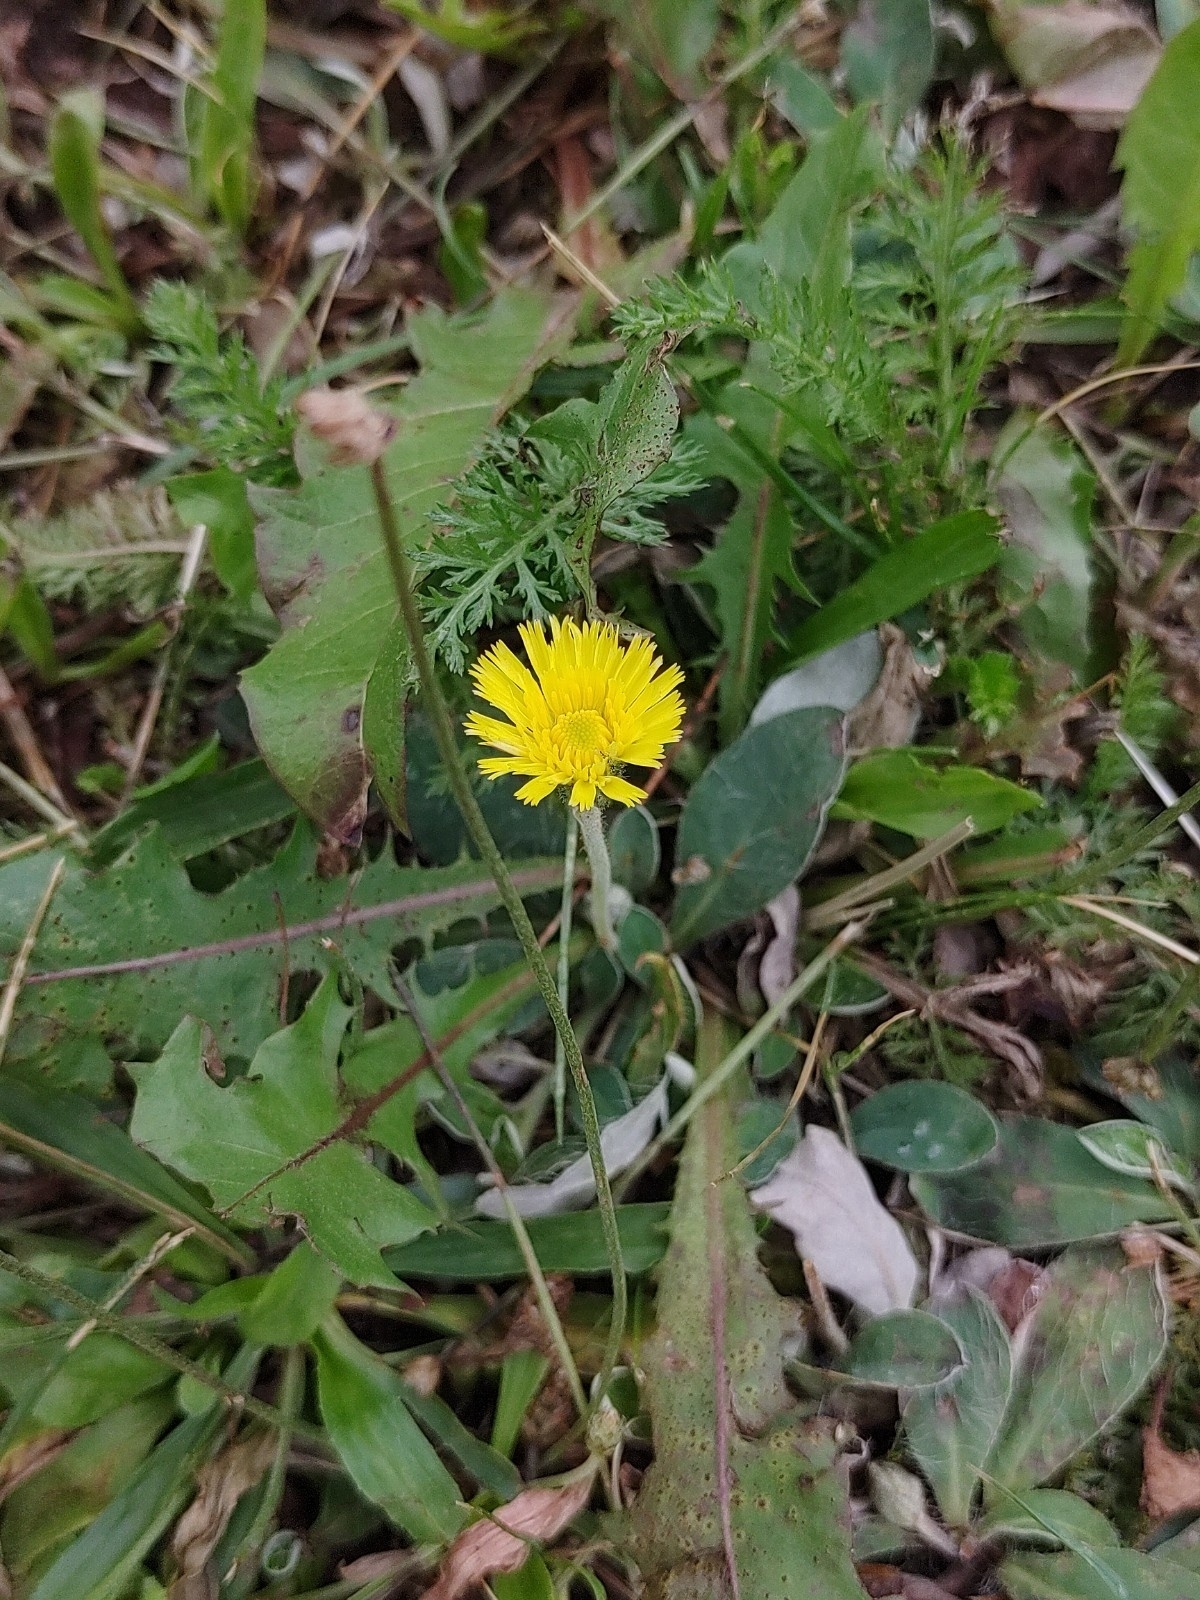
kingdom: Plantae
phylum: Tracheophyta
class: Magnoliopsida
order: Asterales
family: Asteraceae
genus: Pilosella
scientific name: Pilosella officinarum
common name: Mouse-ear hawkweed
